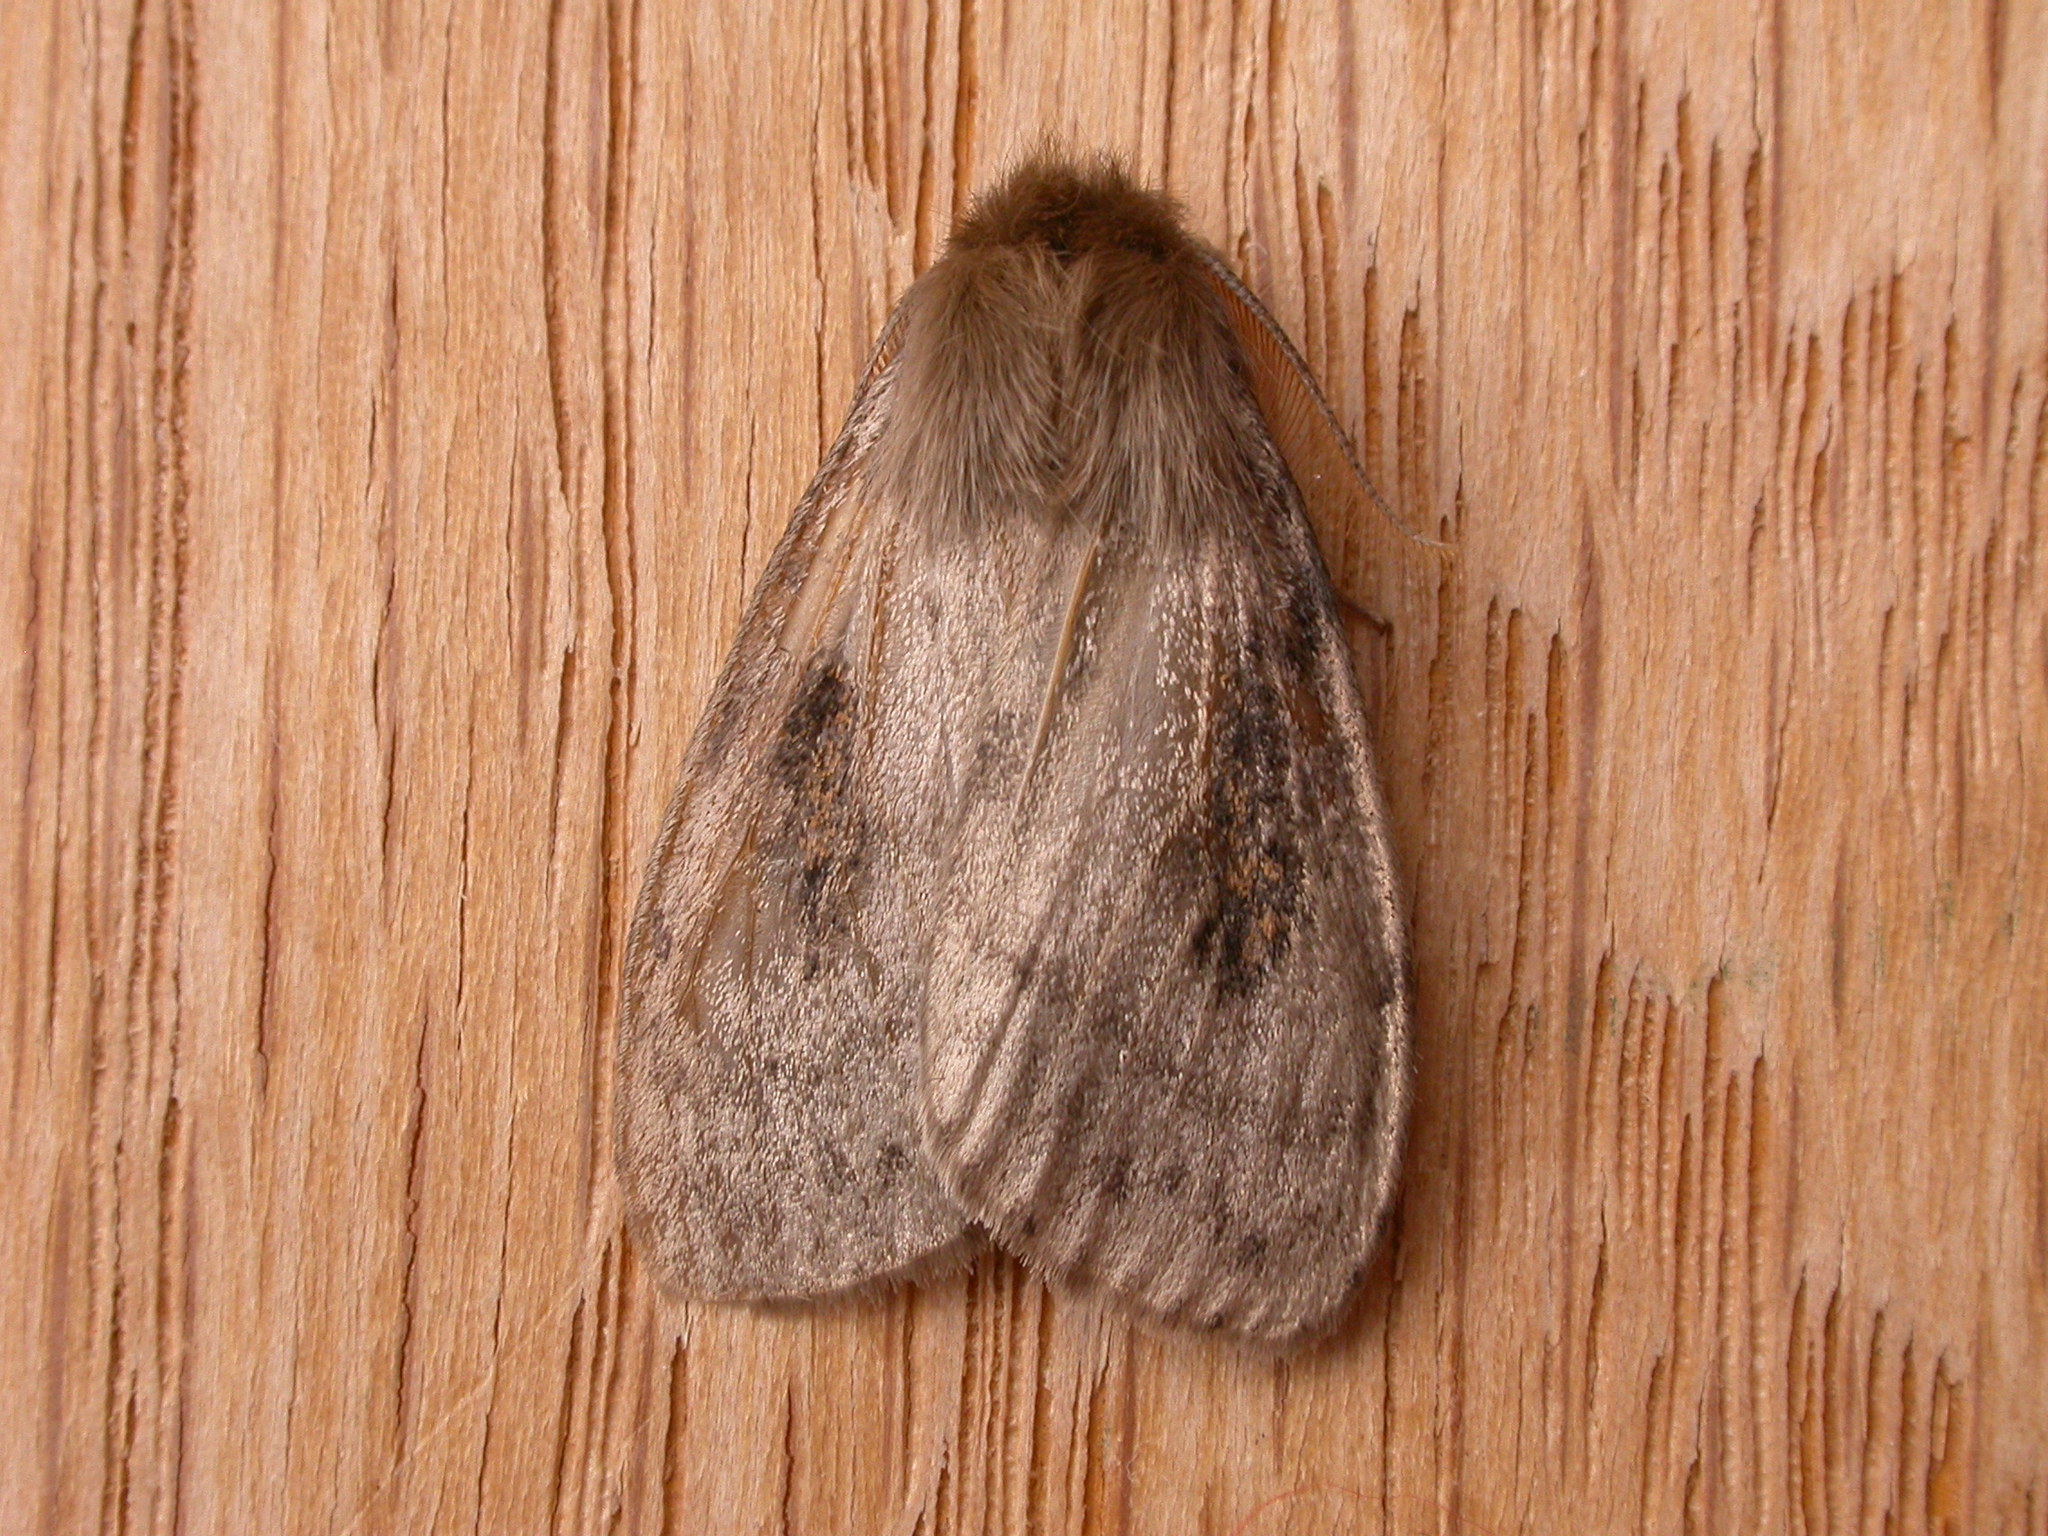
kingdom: Animalia
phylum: Arthropoda
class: Insecta
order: Lepidoptera
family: Erebidae
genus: Leptocneria
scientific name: Leptocneria reducta
